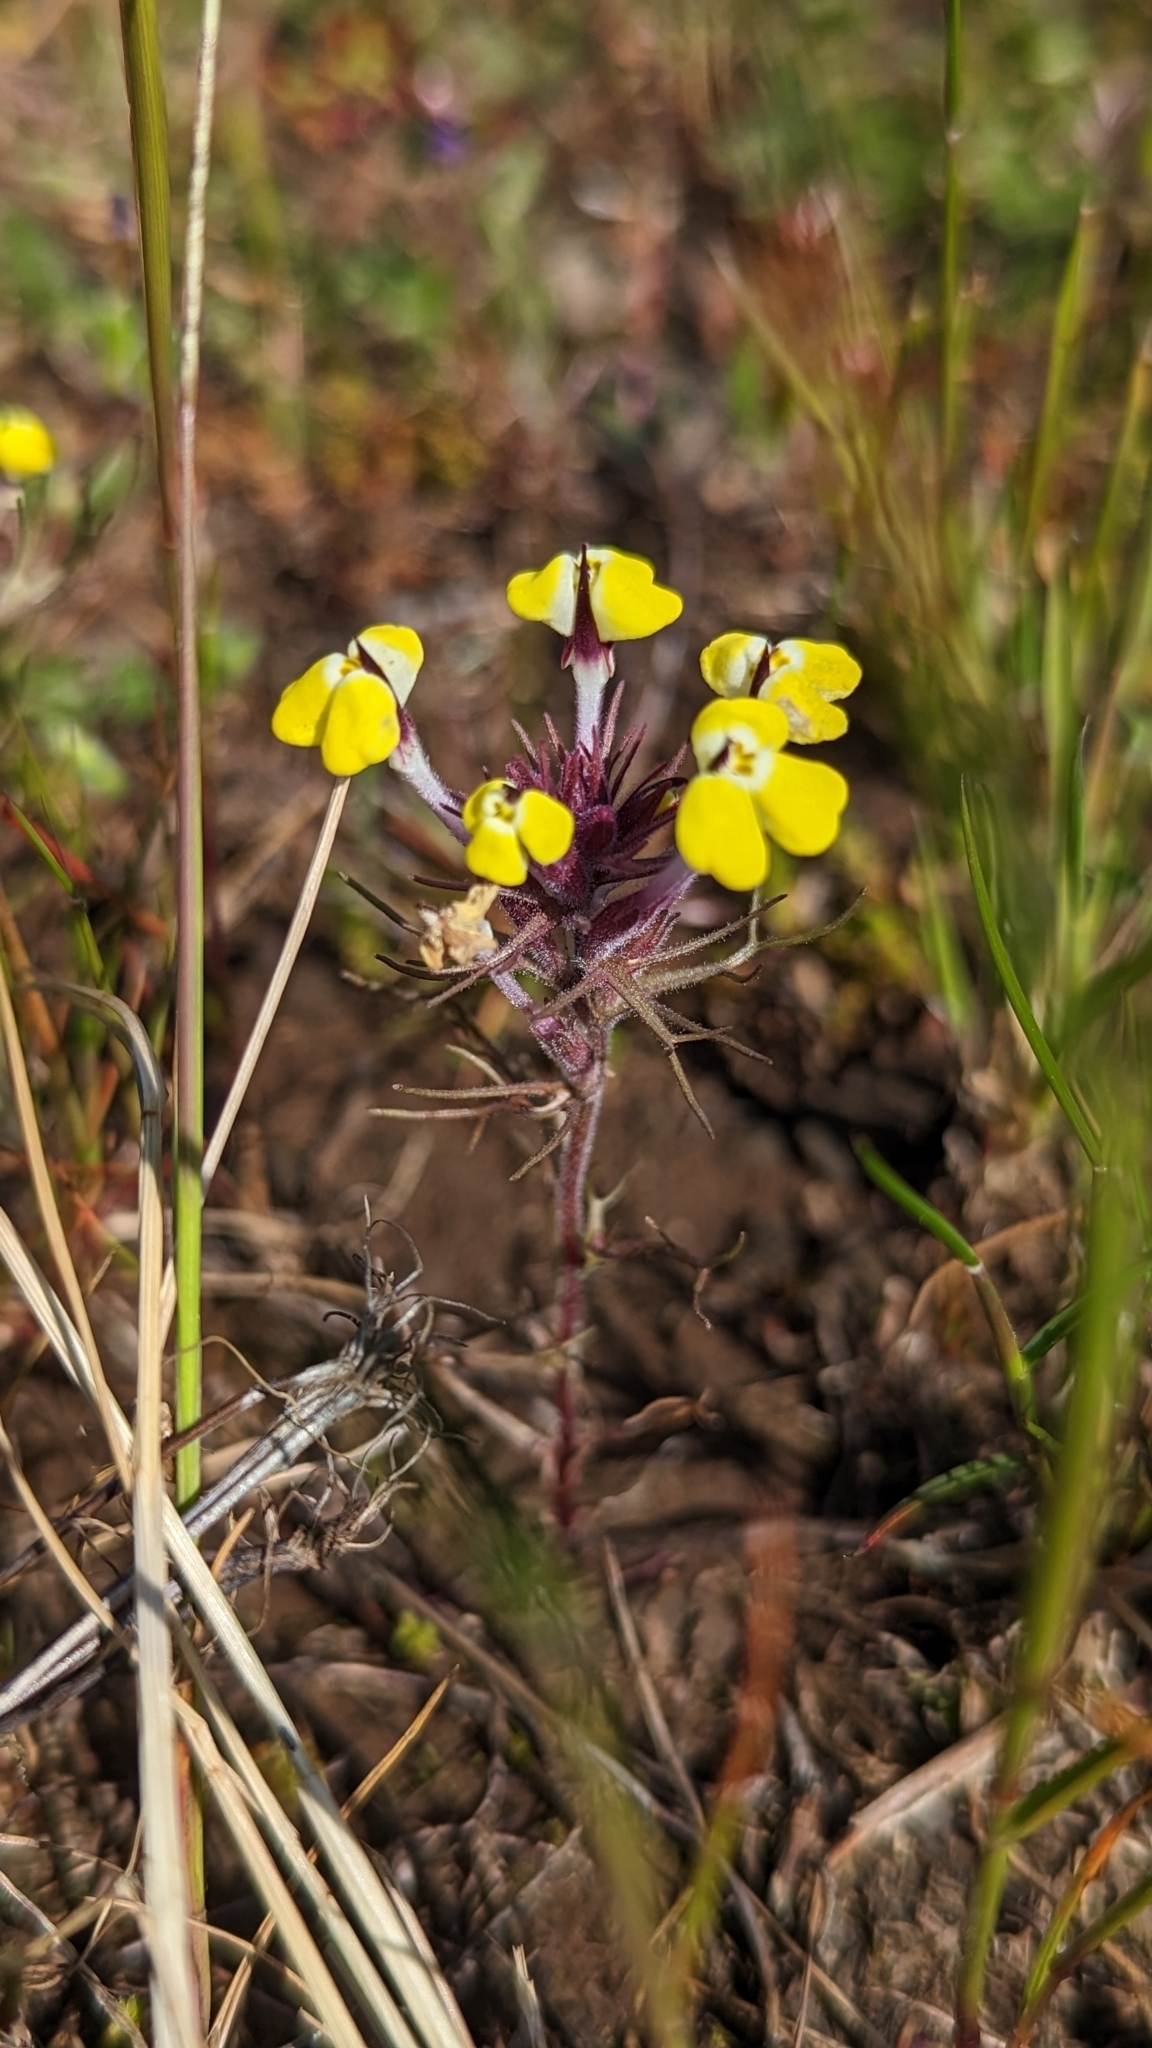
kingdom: Plantae
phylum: Tracheophyta
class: Magnoliopsida
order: Lamiales
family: Orobanchaceae
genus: Triphysaria
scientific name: Triphysaria eriantha
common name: Johnny-tuck
